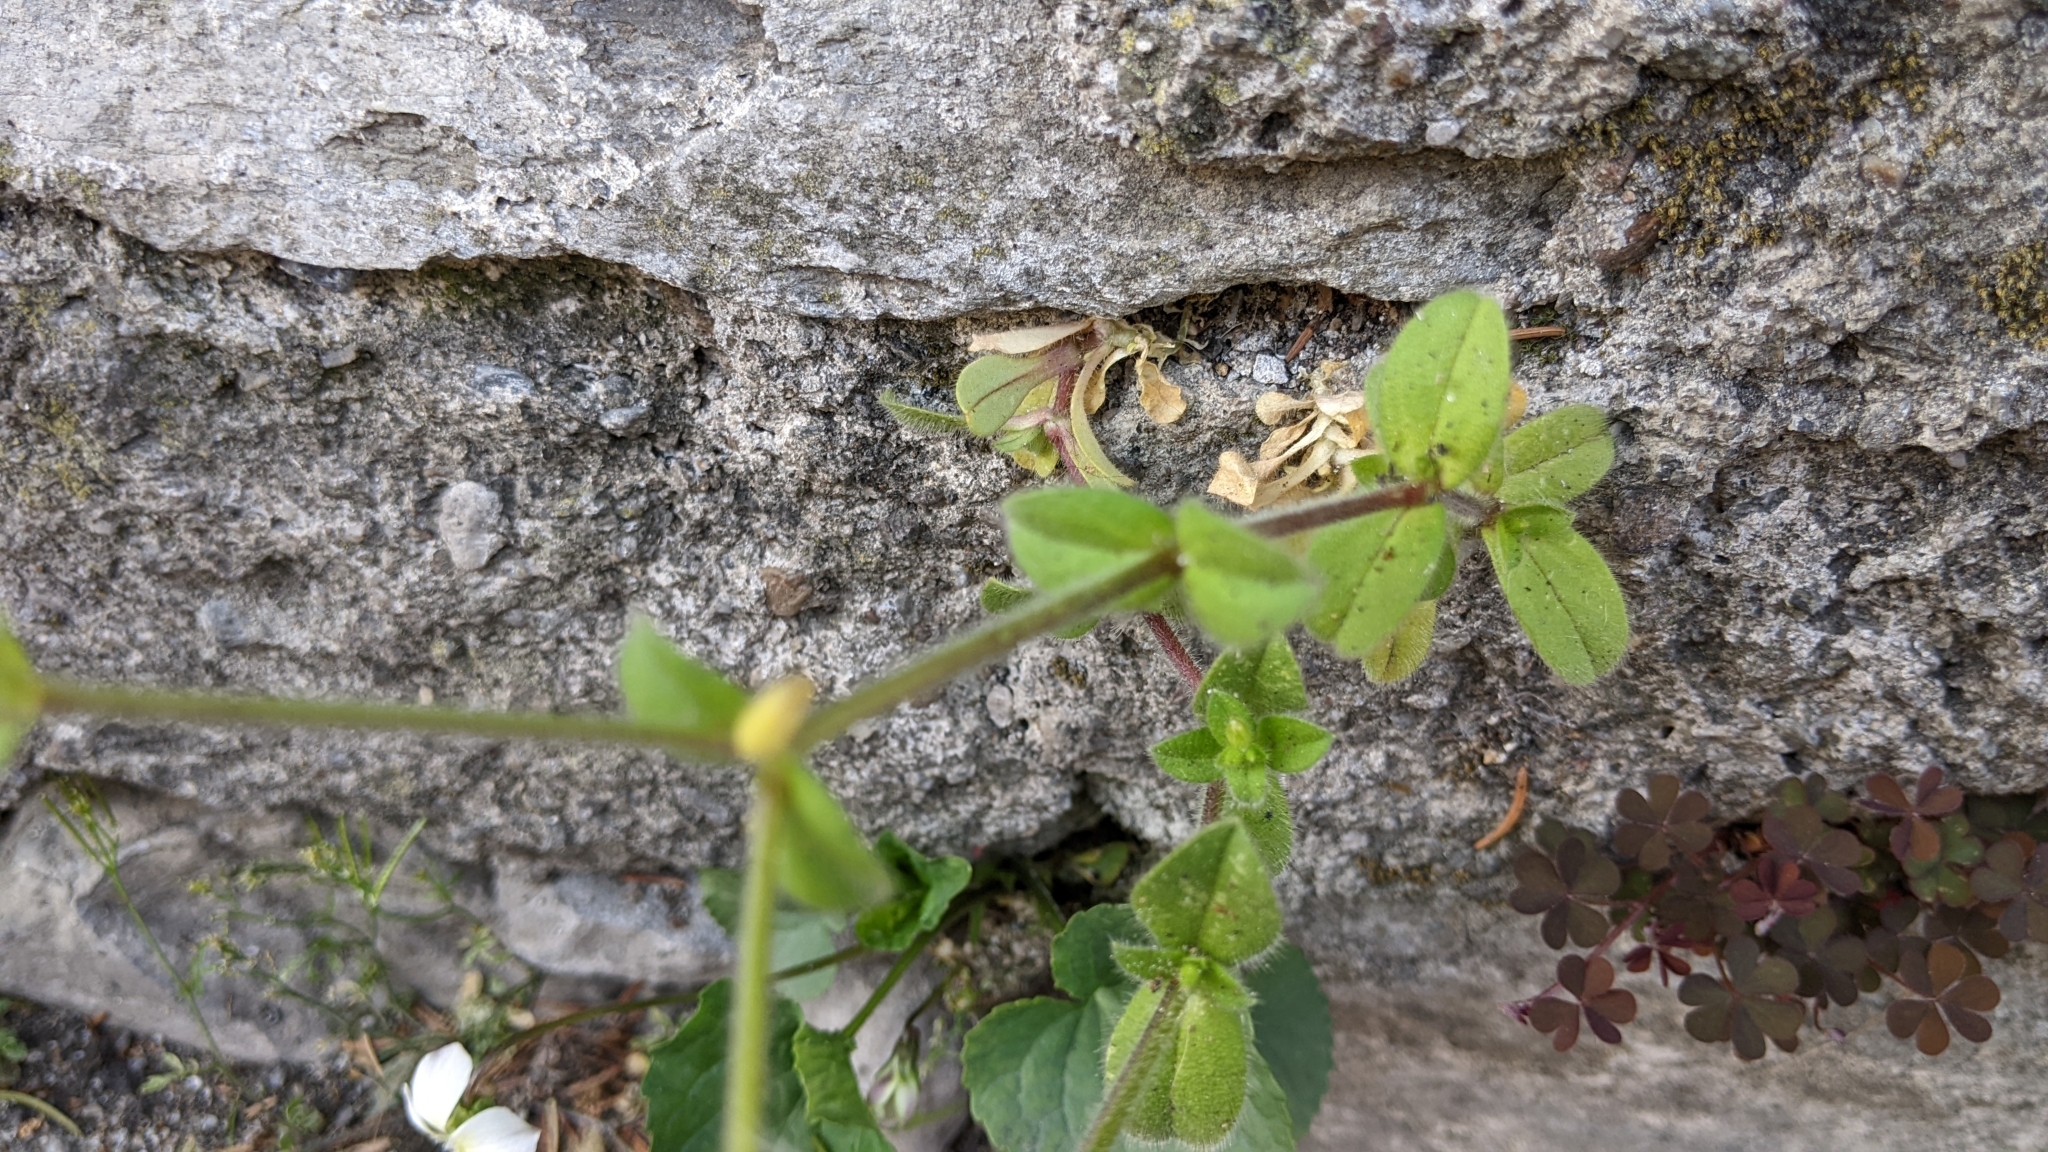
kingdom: Plantae
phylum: Tracheophyta
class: Magnoliopsida
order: Caryophyllales
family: Caryophyllaceae
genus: Cerastium
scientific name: Cerastium glomeratum
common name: Sticky chickweed
